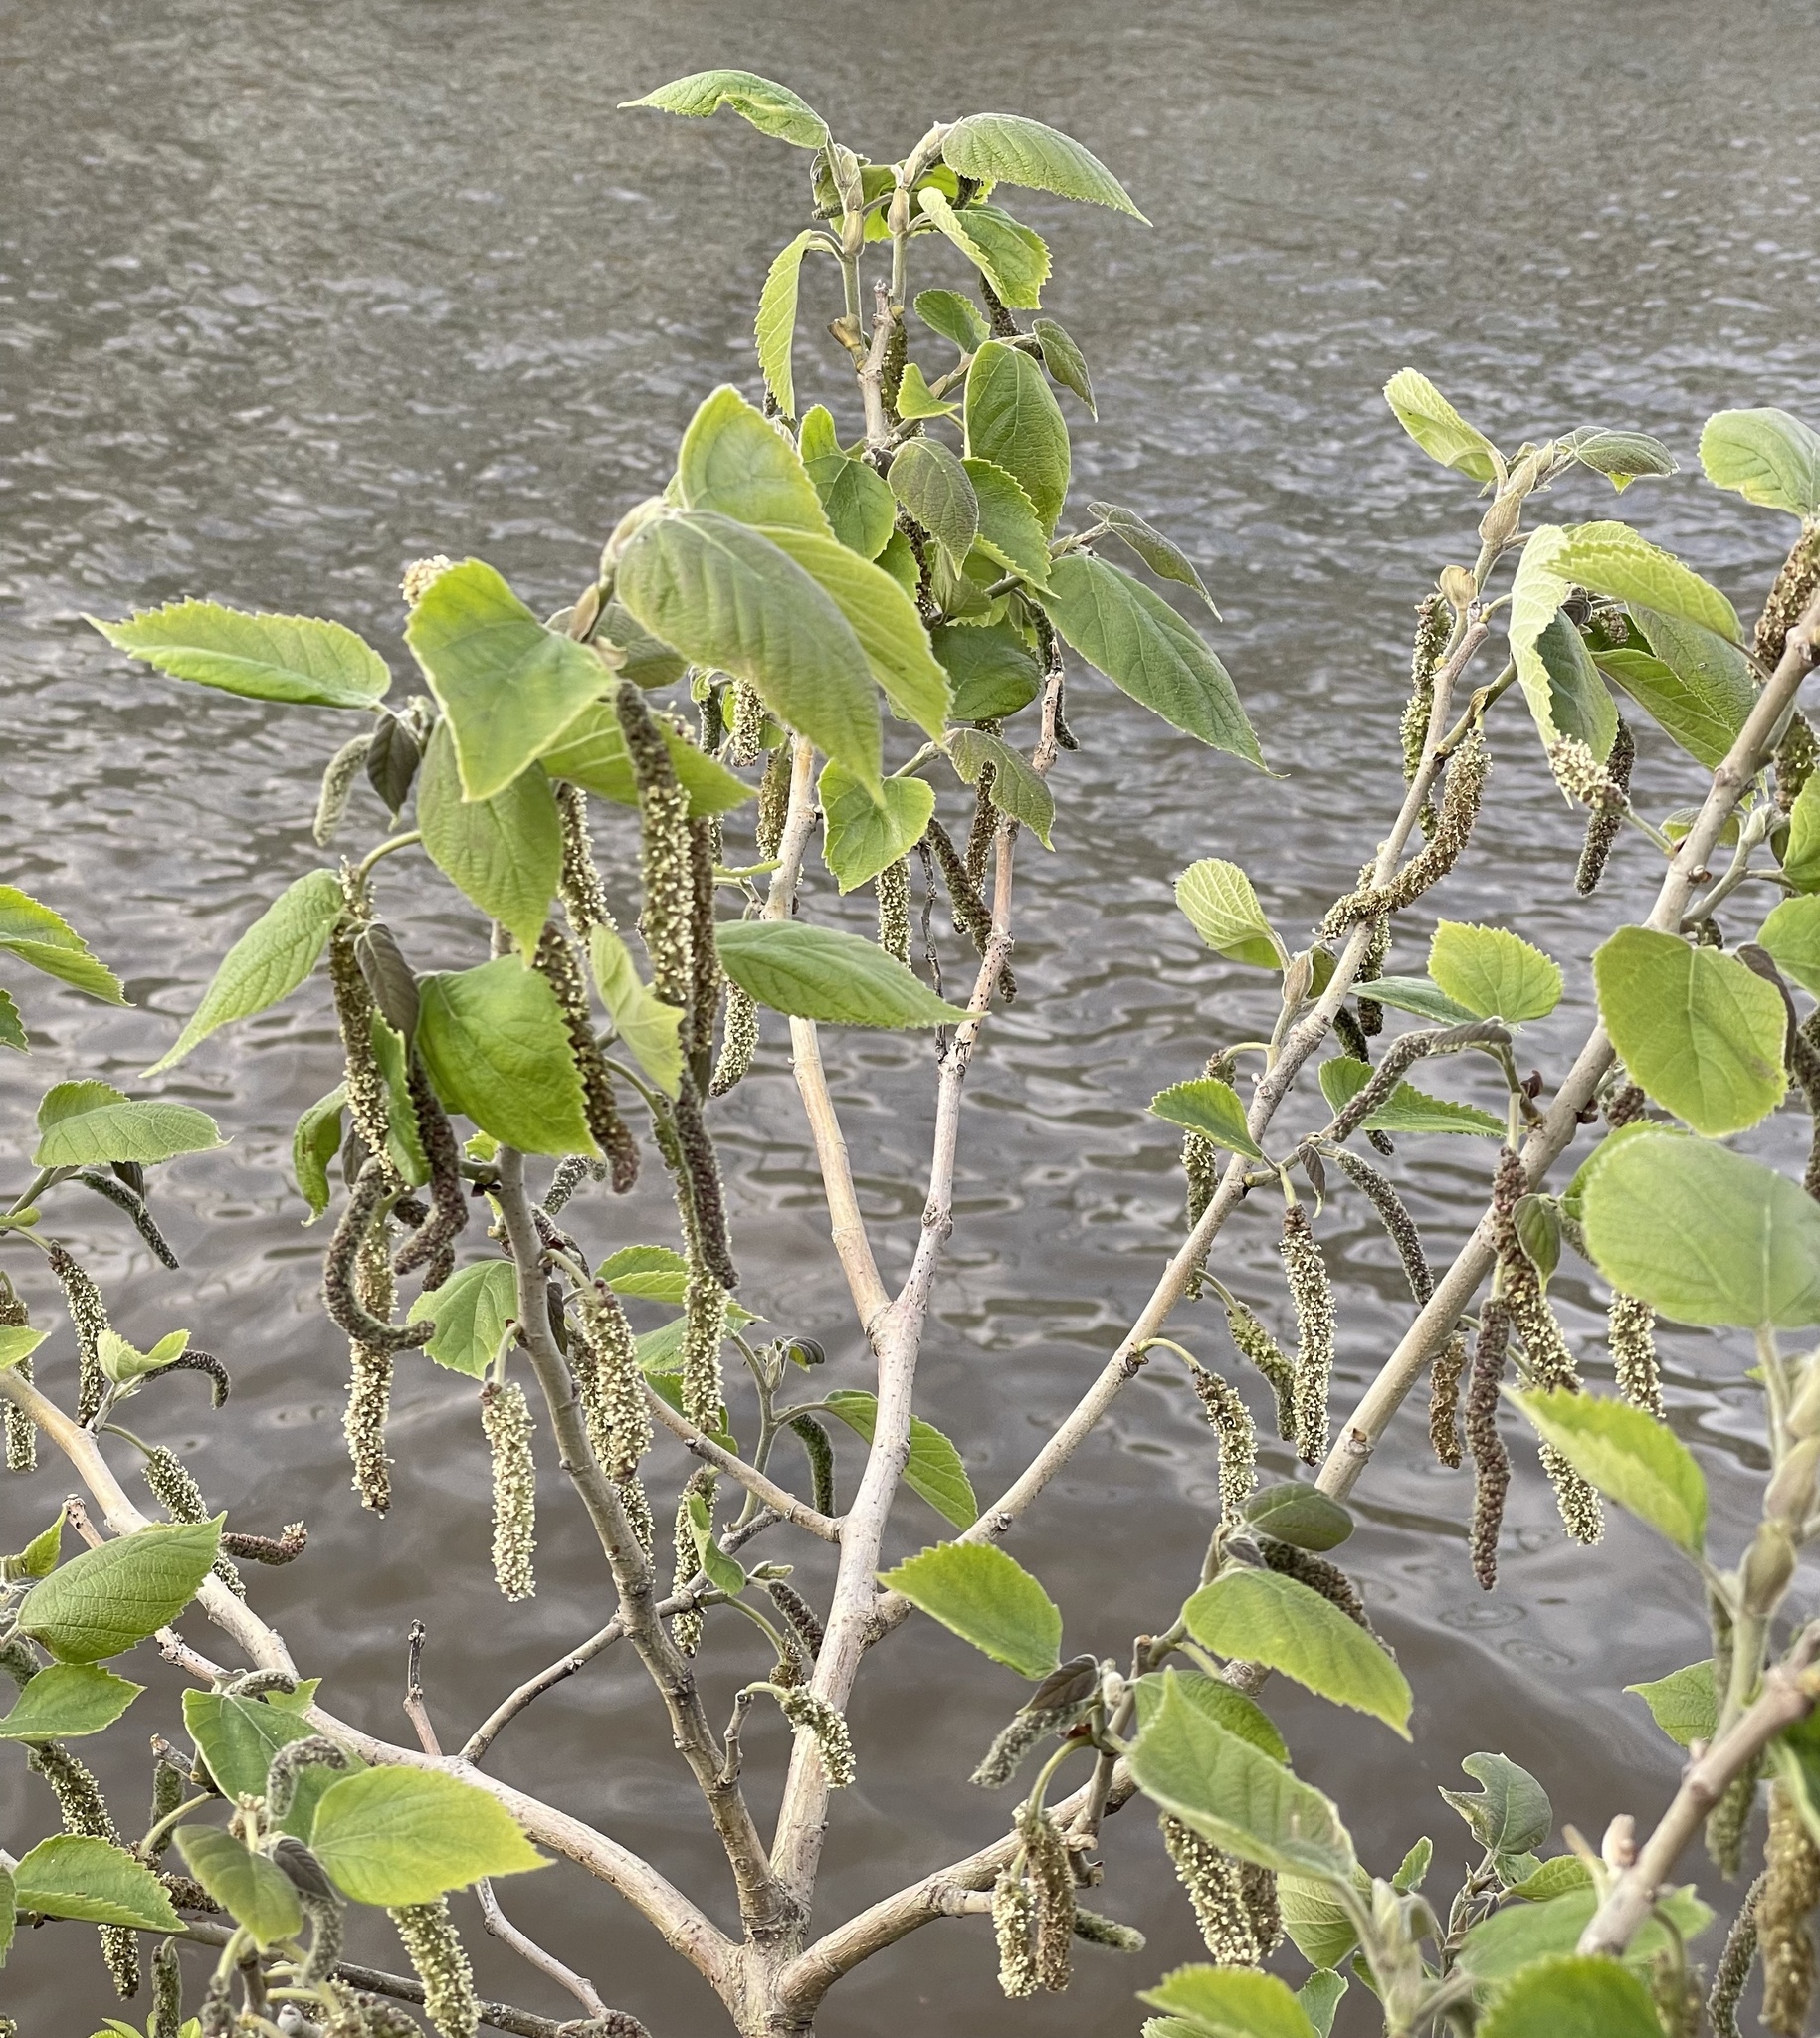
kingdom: Plantae
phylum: Tracheophyta
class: Magnoliopsida
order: Rosales
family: Moraceae
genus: Broussonetia
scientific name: Broussonetia papyrifera
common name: Paper mulberry
